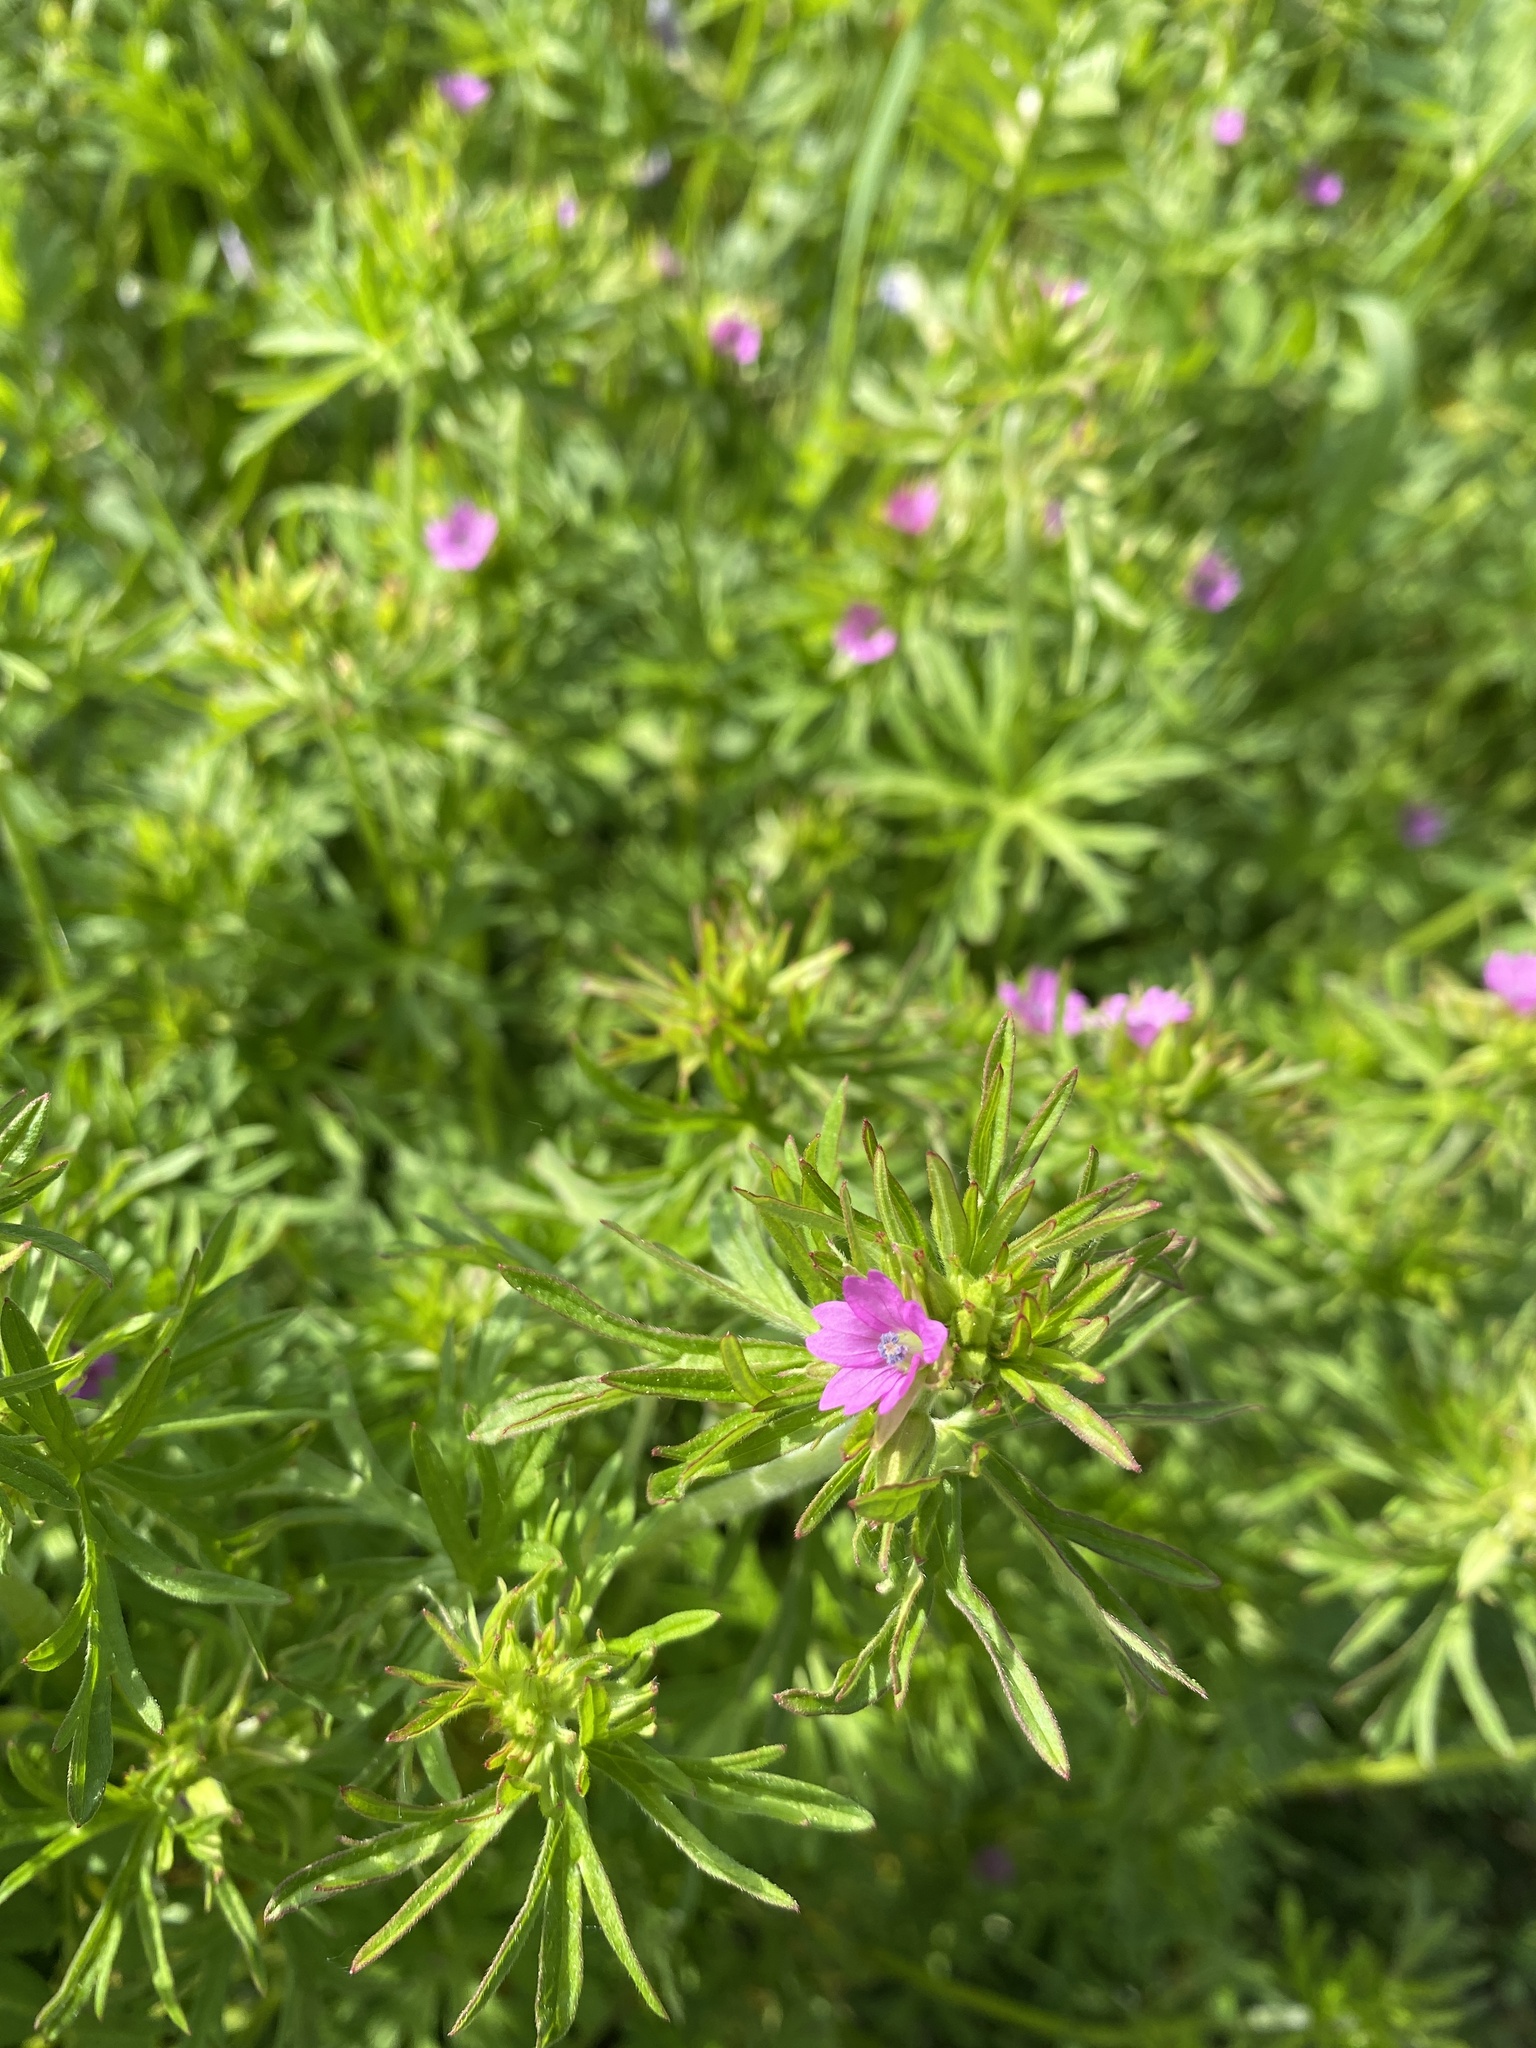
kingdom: Plantae
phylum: Tracheophyta
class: Magnoliopsida
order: Geraniales
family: Geraniaceae
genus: Geranium
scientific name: Geranium dissectum
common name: Cut-leaved crane's-bill
